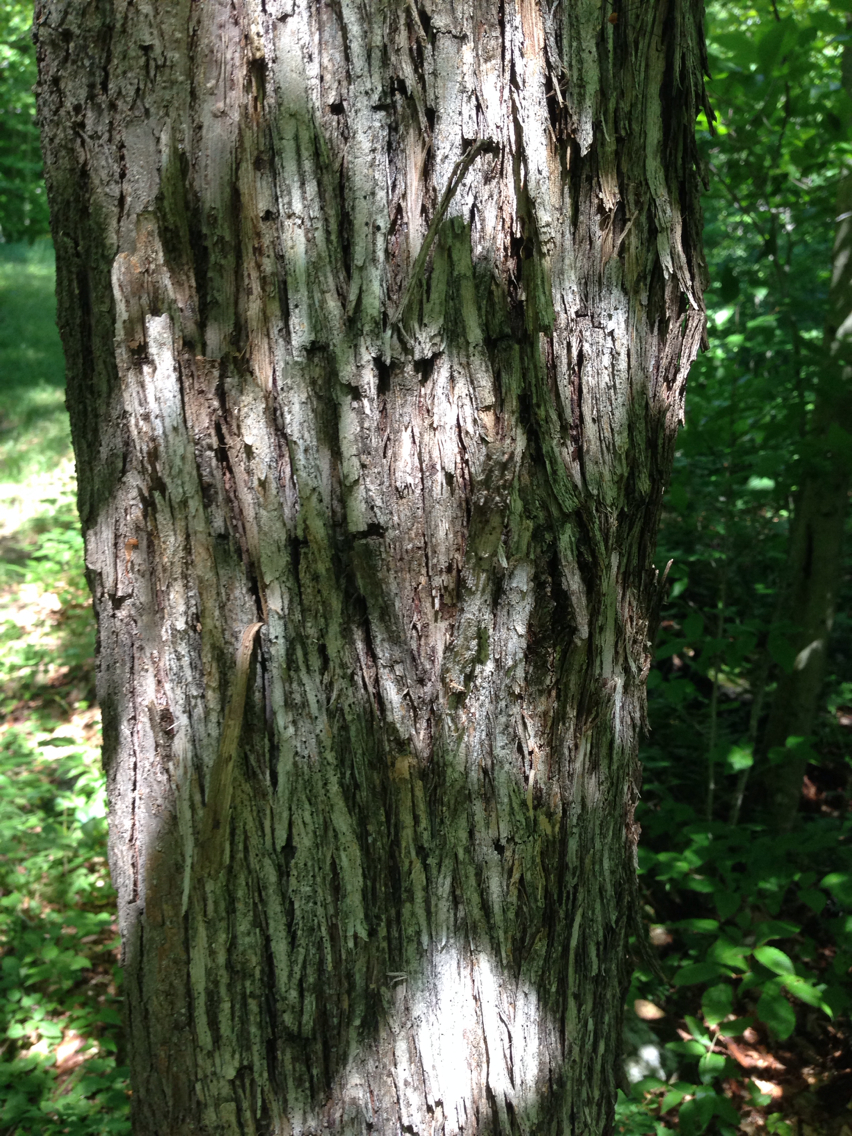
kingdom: Plantae
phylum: Tracheophyta
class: Magnoliopsida
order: Fagales
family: Betulaceae
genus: Ostrya
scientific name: Ostrya virginiana
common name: Ironwood
